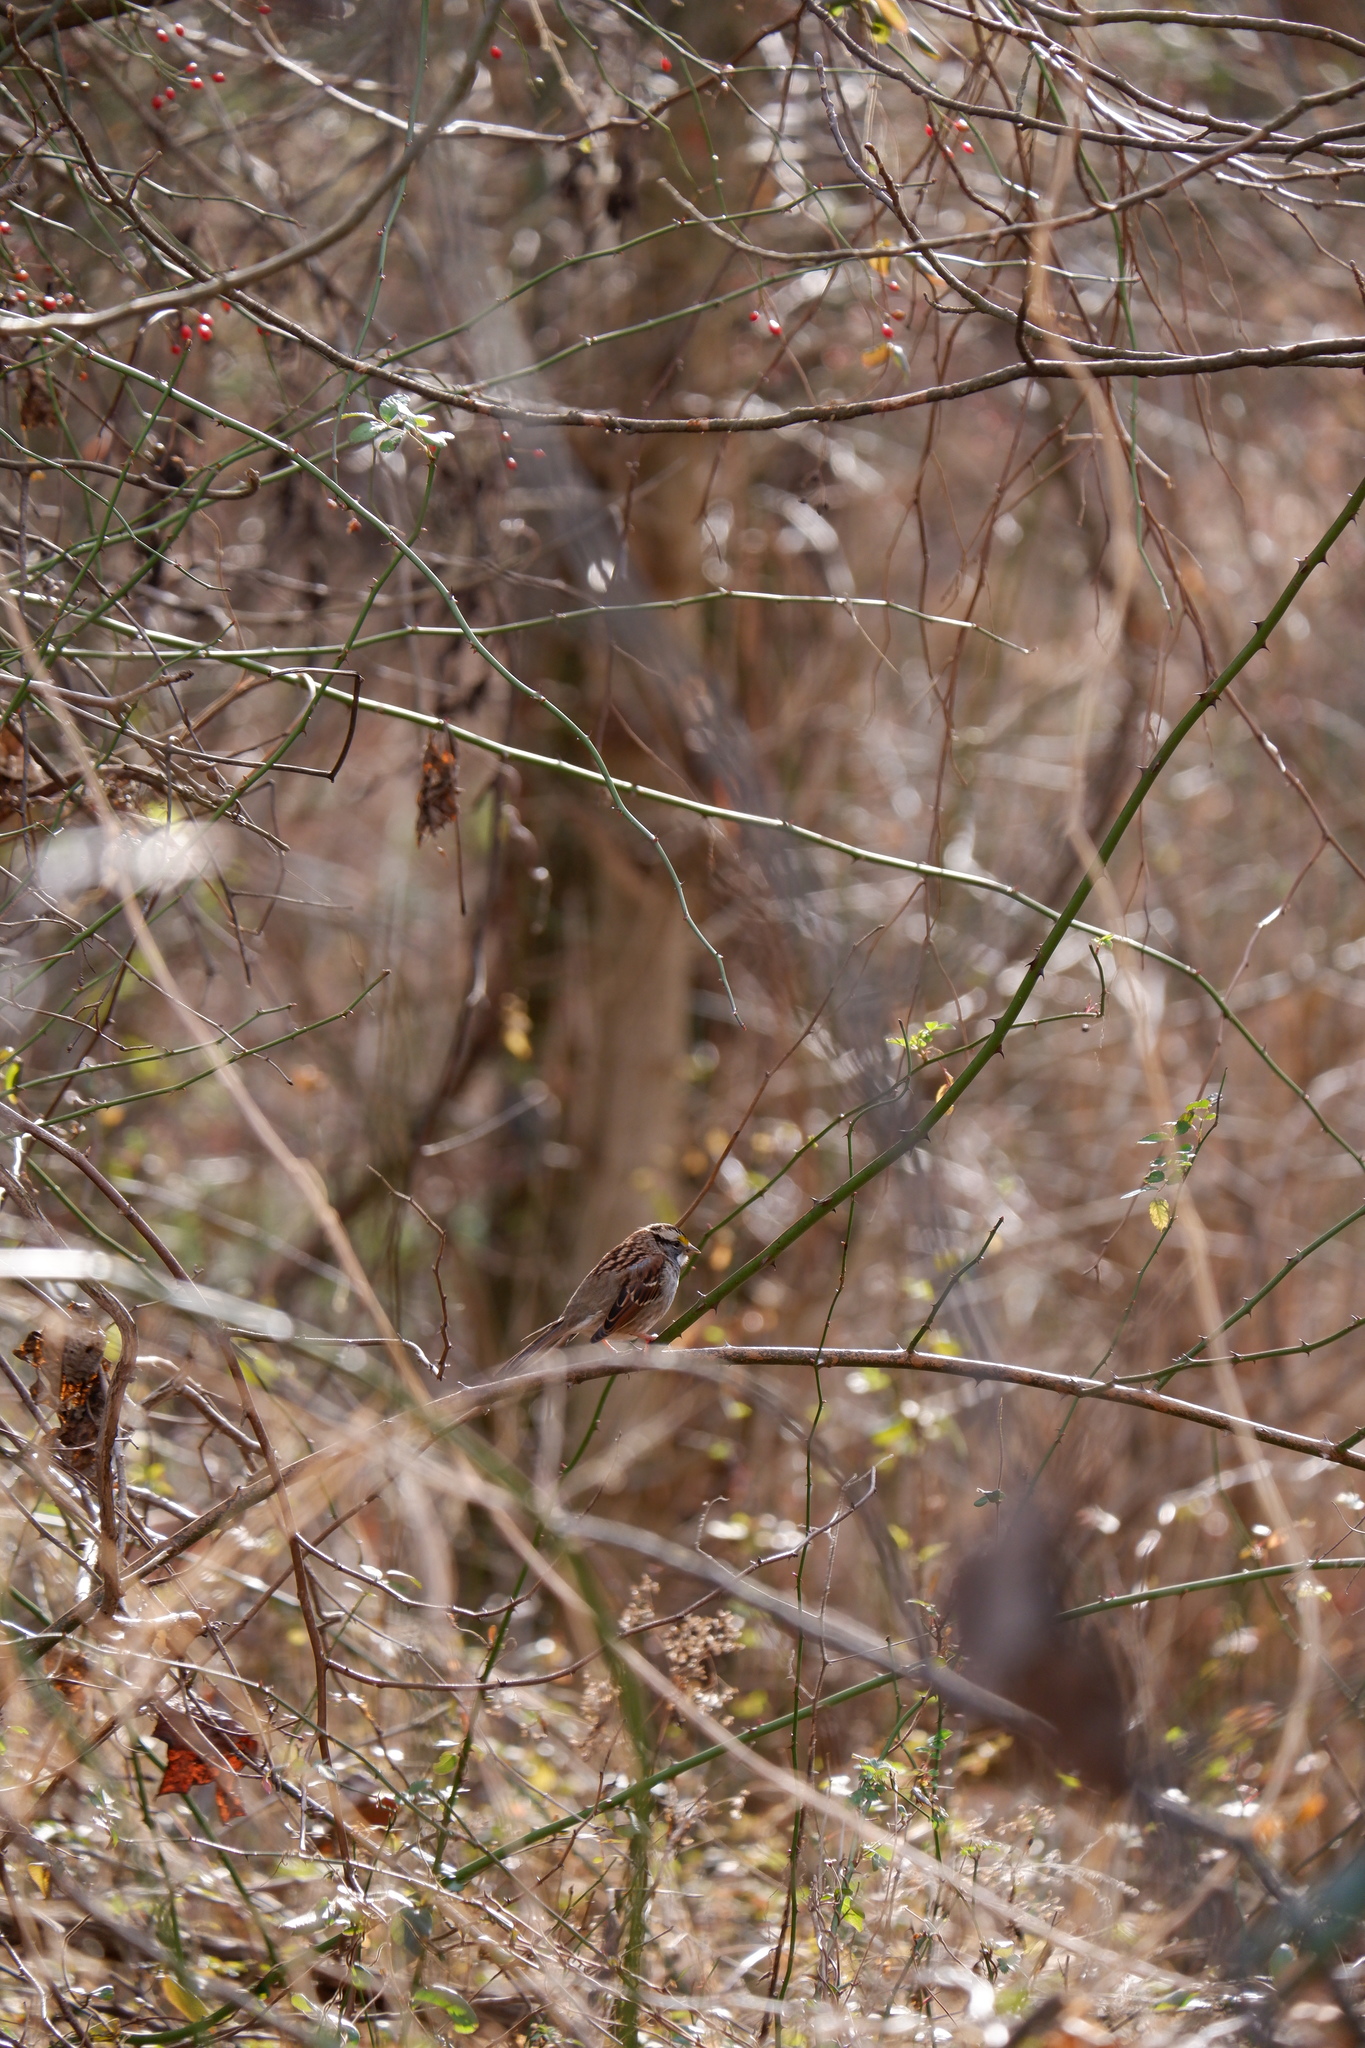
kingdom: Animalia
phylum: Chordata
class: Aves
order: Passeriformes
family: Passerellidae
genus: Zonotrichia
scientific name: Zonotrichia albicollis
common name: White-throated sparrow
